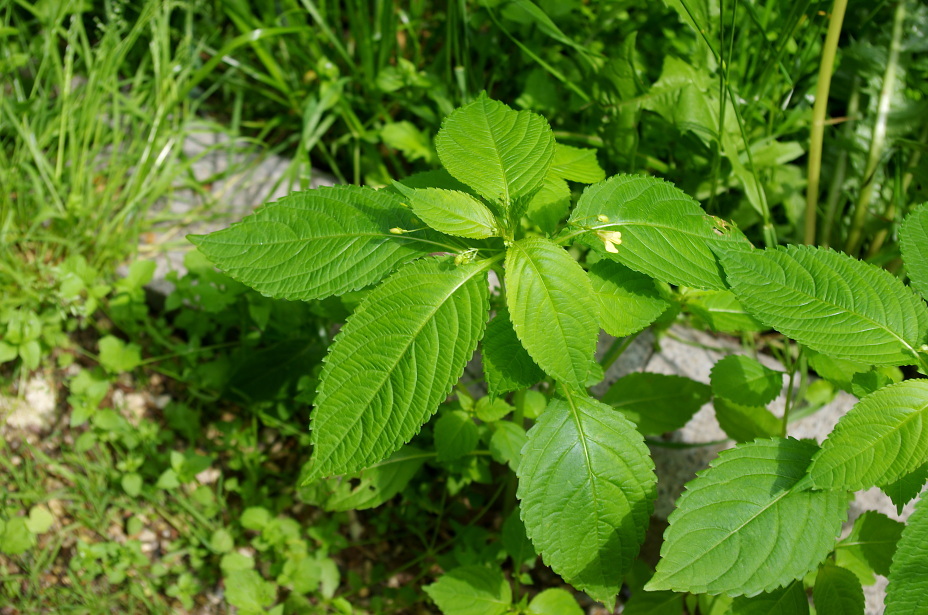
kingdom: Plantae
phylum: Tracheophyta
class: Magnoliopsida
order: Ericales
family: Balsaminaceae
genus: Impatiens
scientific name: Impatiens parviflora
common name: Small balsam
